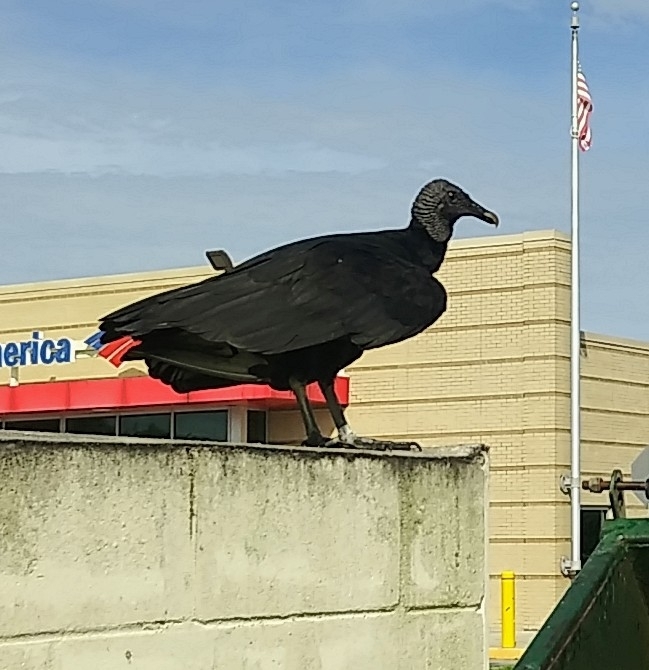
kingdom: Animalia
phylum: Chordata
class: Aves
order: Accipitriformes
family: Cathartidae
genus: Coragyps
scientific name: Coragyps atratus
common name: Black vulture
